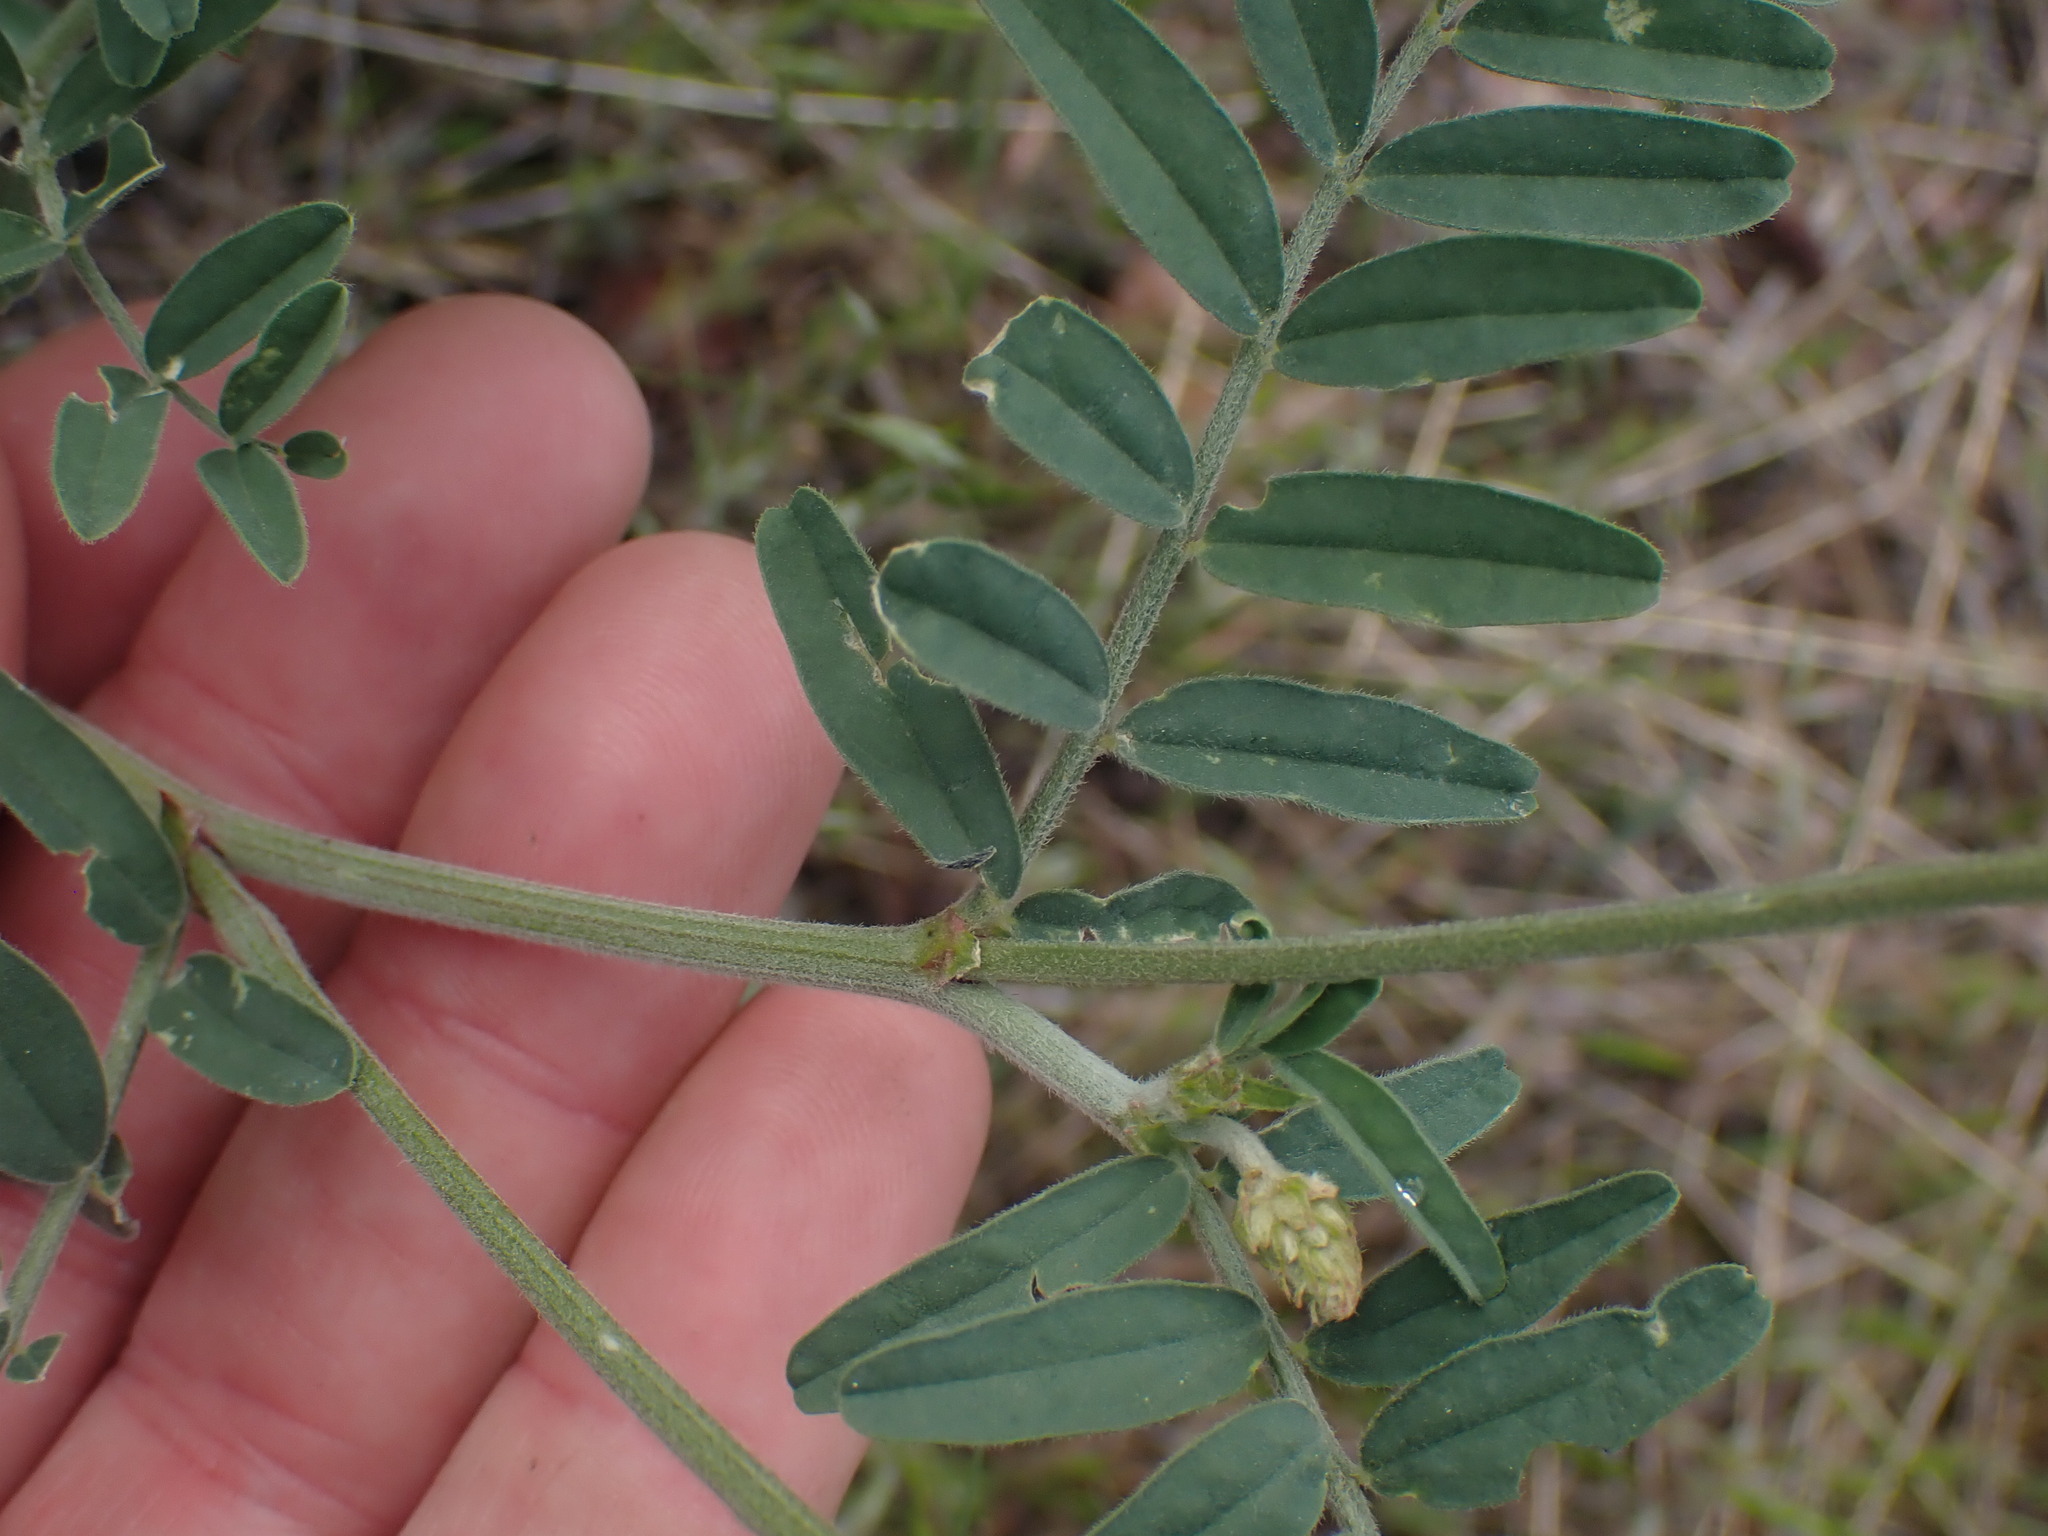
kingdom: Plantae
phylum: Tracheophyta
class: Magnoliopsida
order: Fabales
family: Fabaceae
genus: Astragalus
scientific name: Astragalus collinus
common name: Hill milk-vetch
